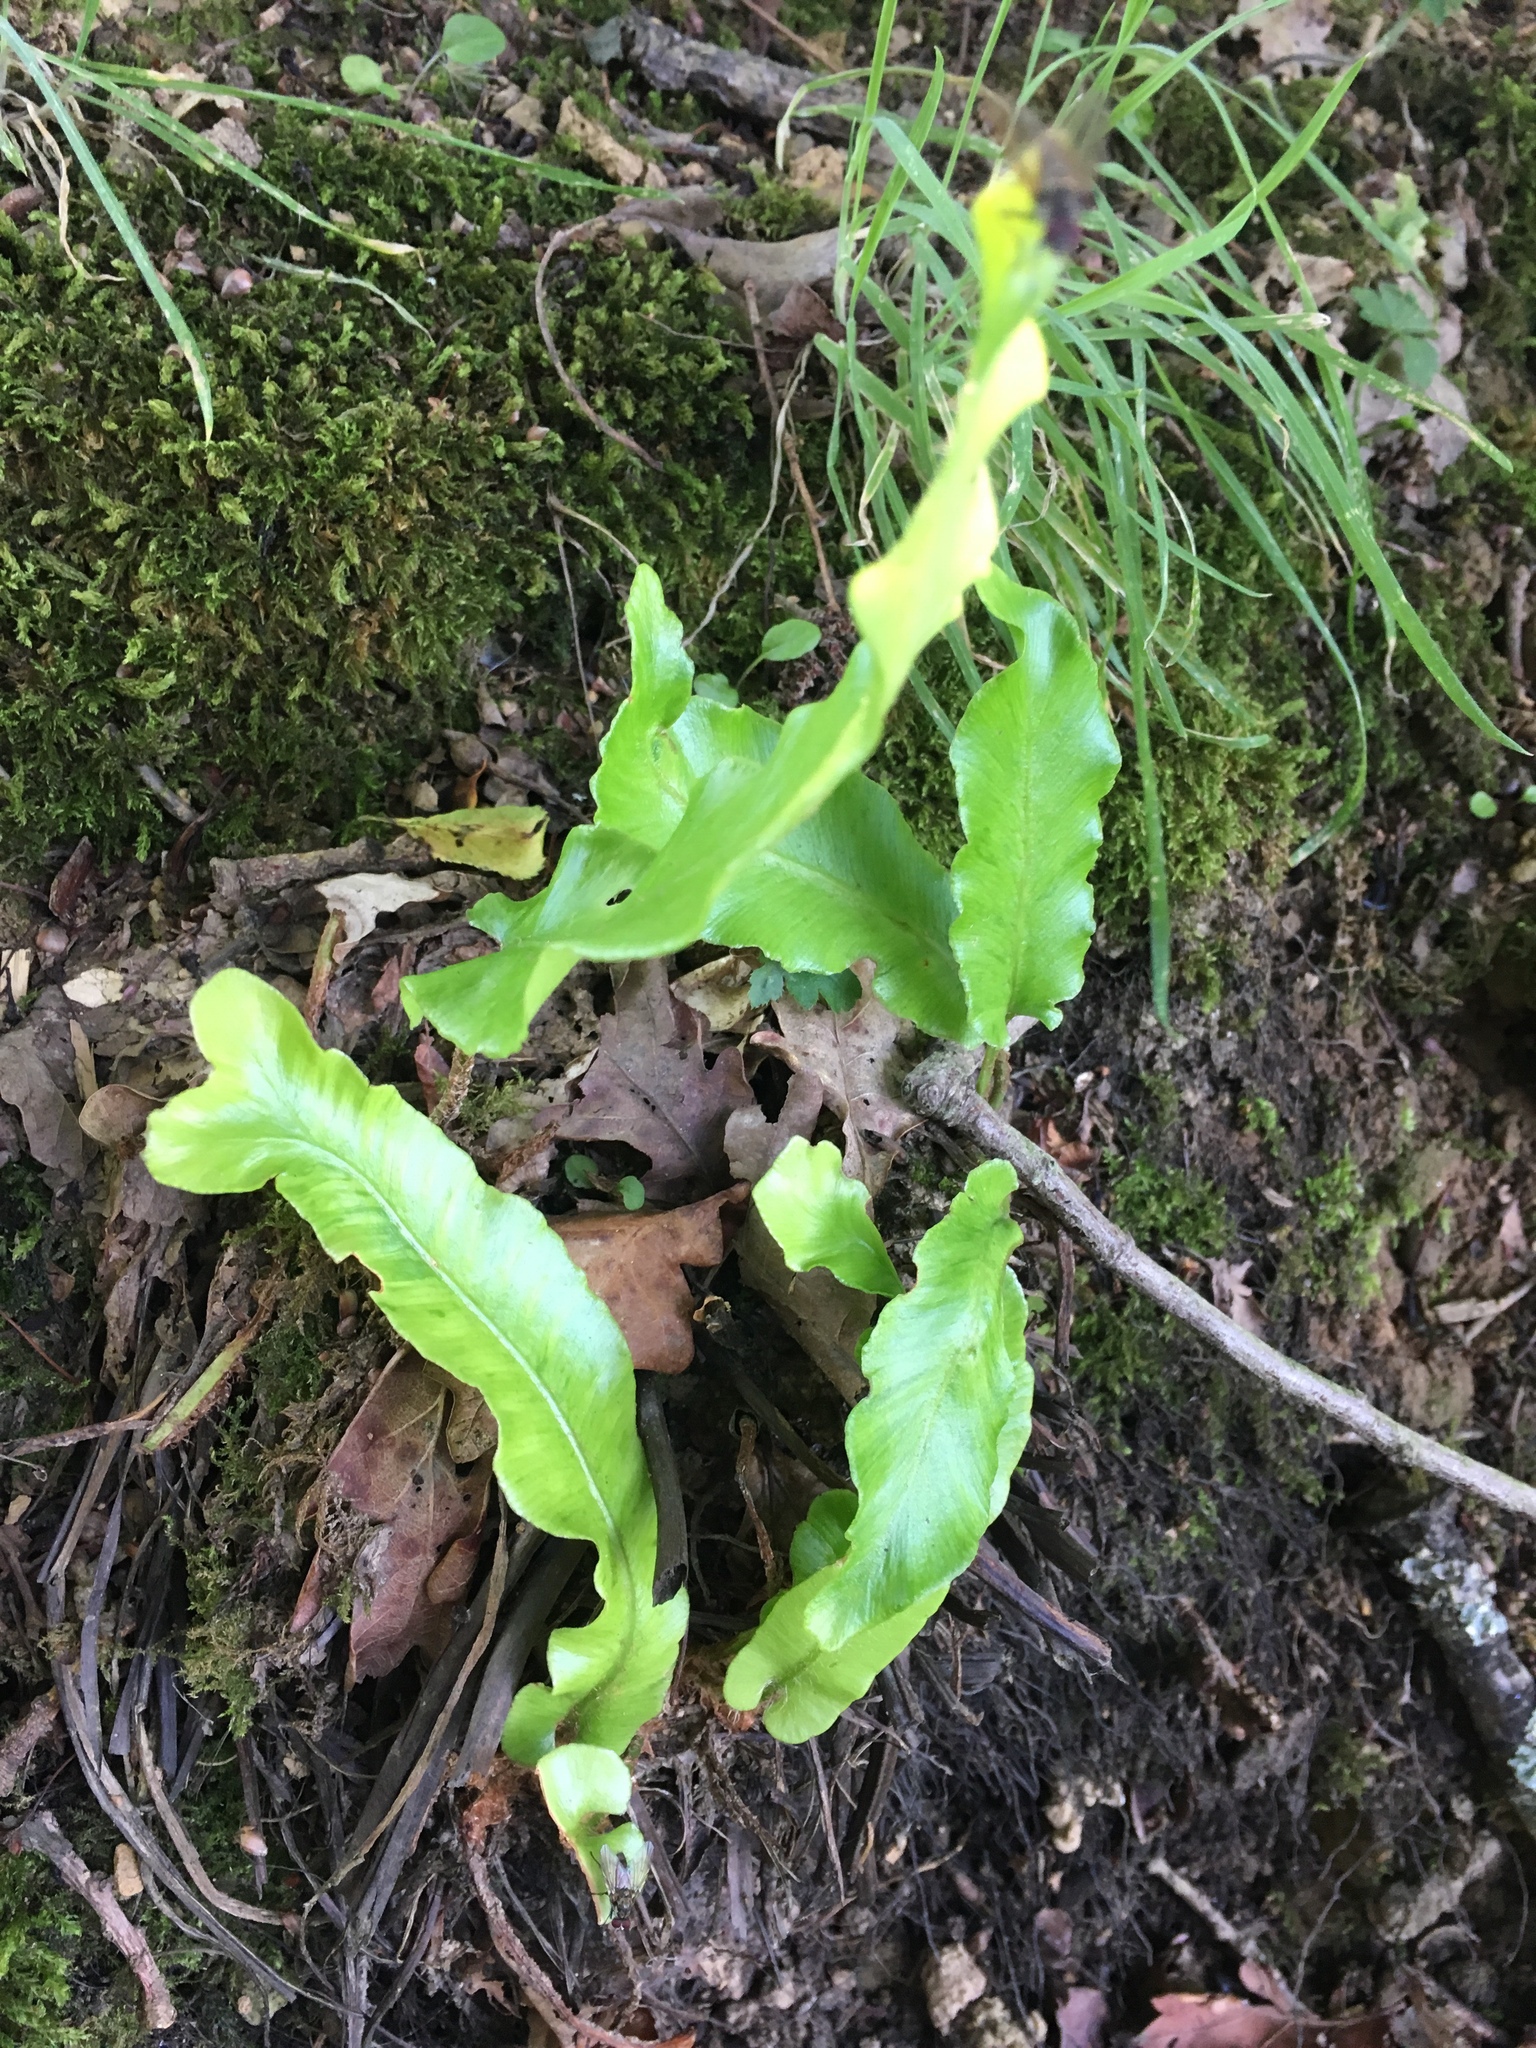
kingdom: Plantae
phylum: Tracheophyta
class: Polypodiopsida
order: Polypodiales
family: Aspleniaceae
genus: Asplenium
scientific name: Asplenium scolopendrium
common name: Hart's-tongue fern
